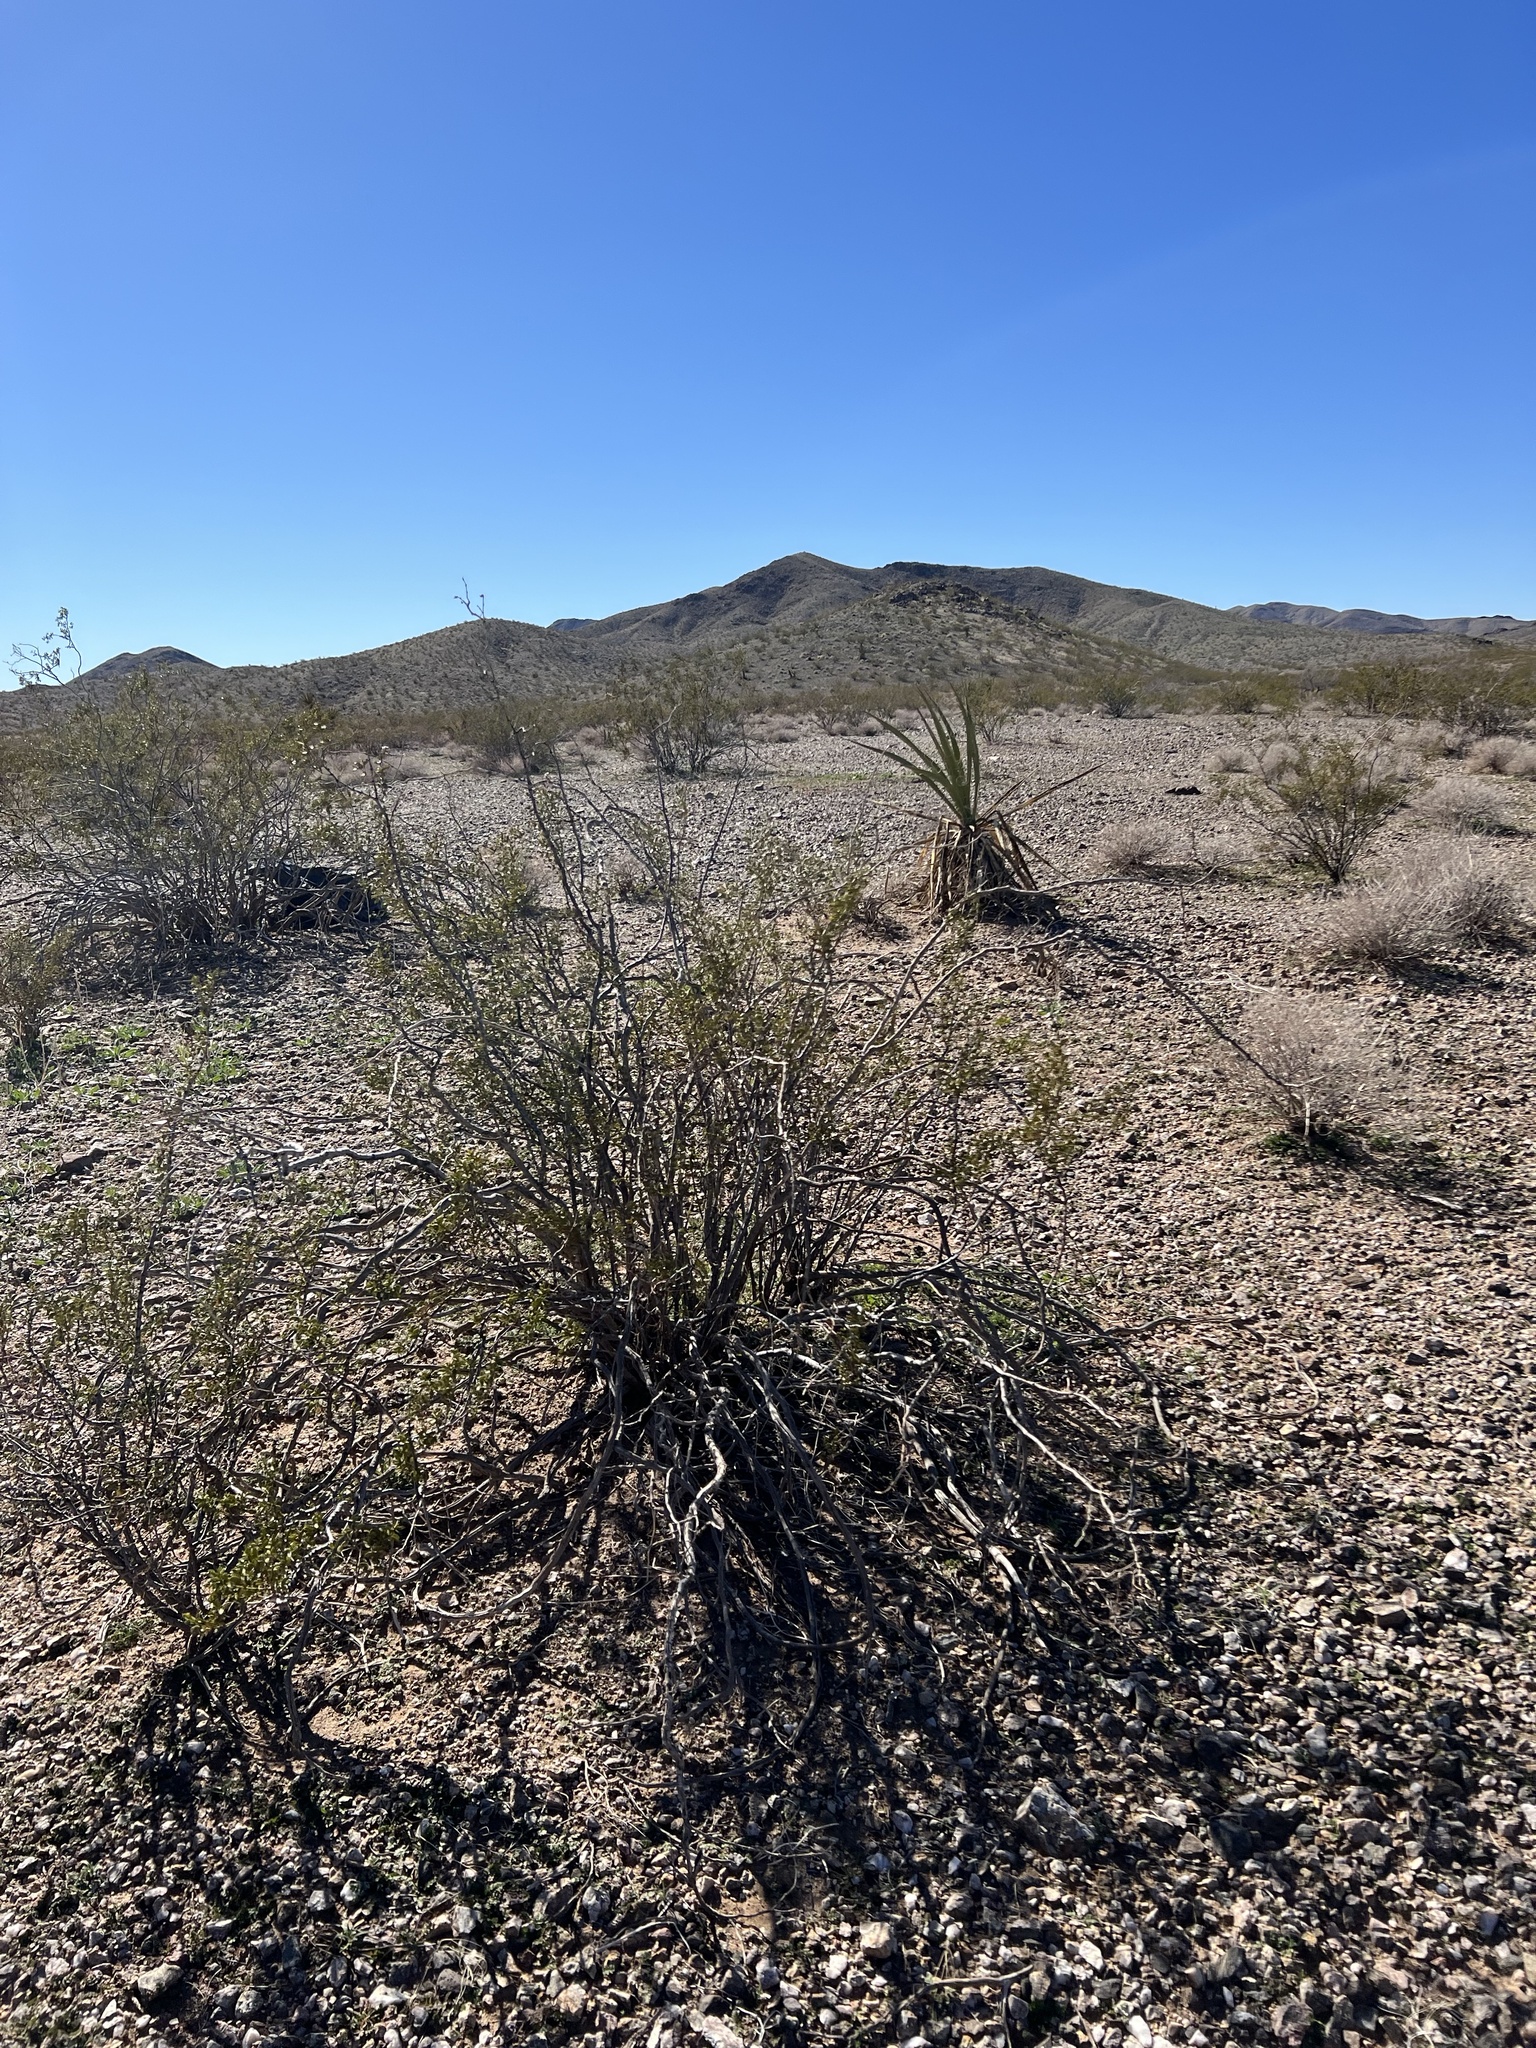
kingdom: Plantae
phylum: Tracheophyta
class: Magnoliopsida
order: Zygophyllales
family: Zygophyllaceae
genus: Larrea
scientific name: Larrea tridentata
